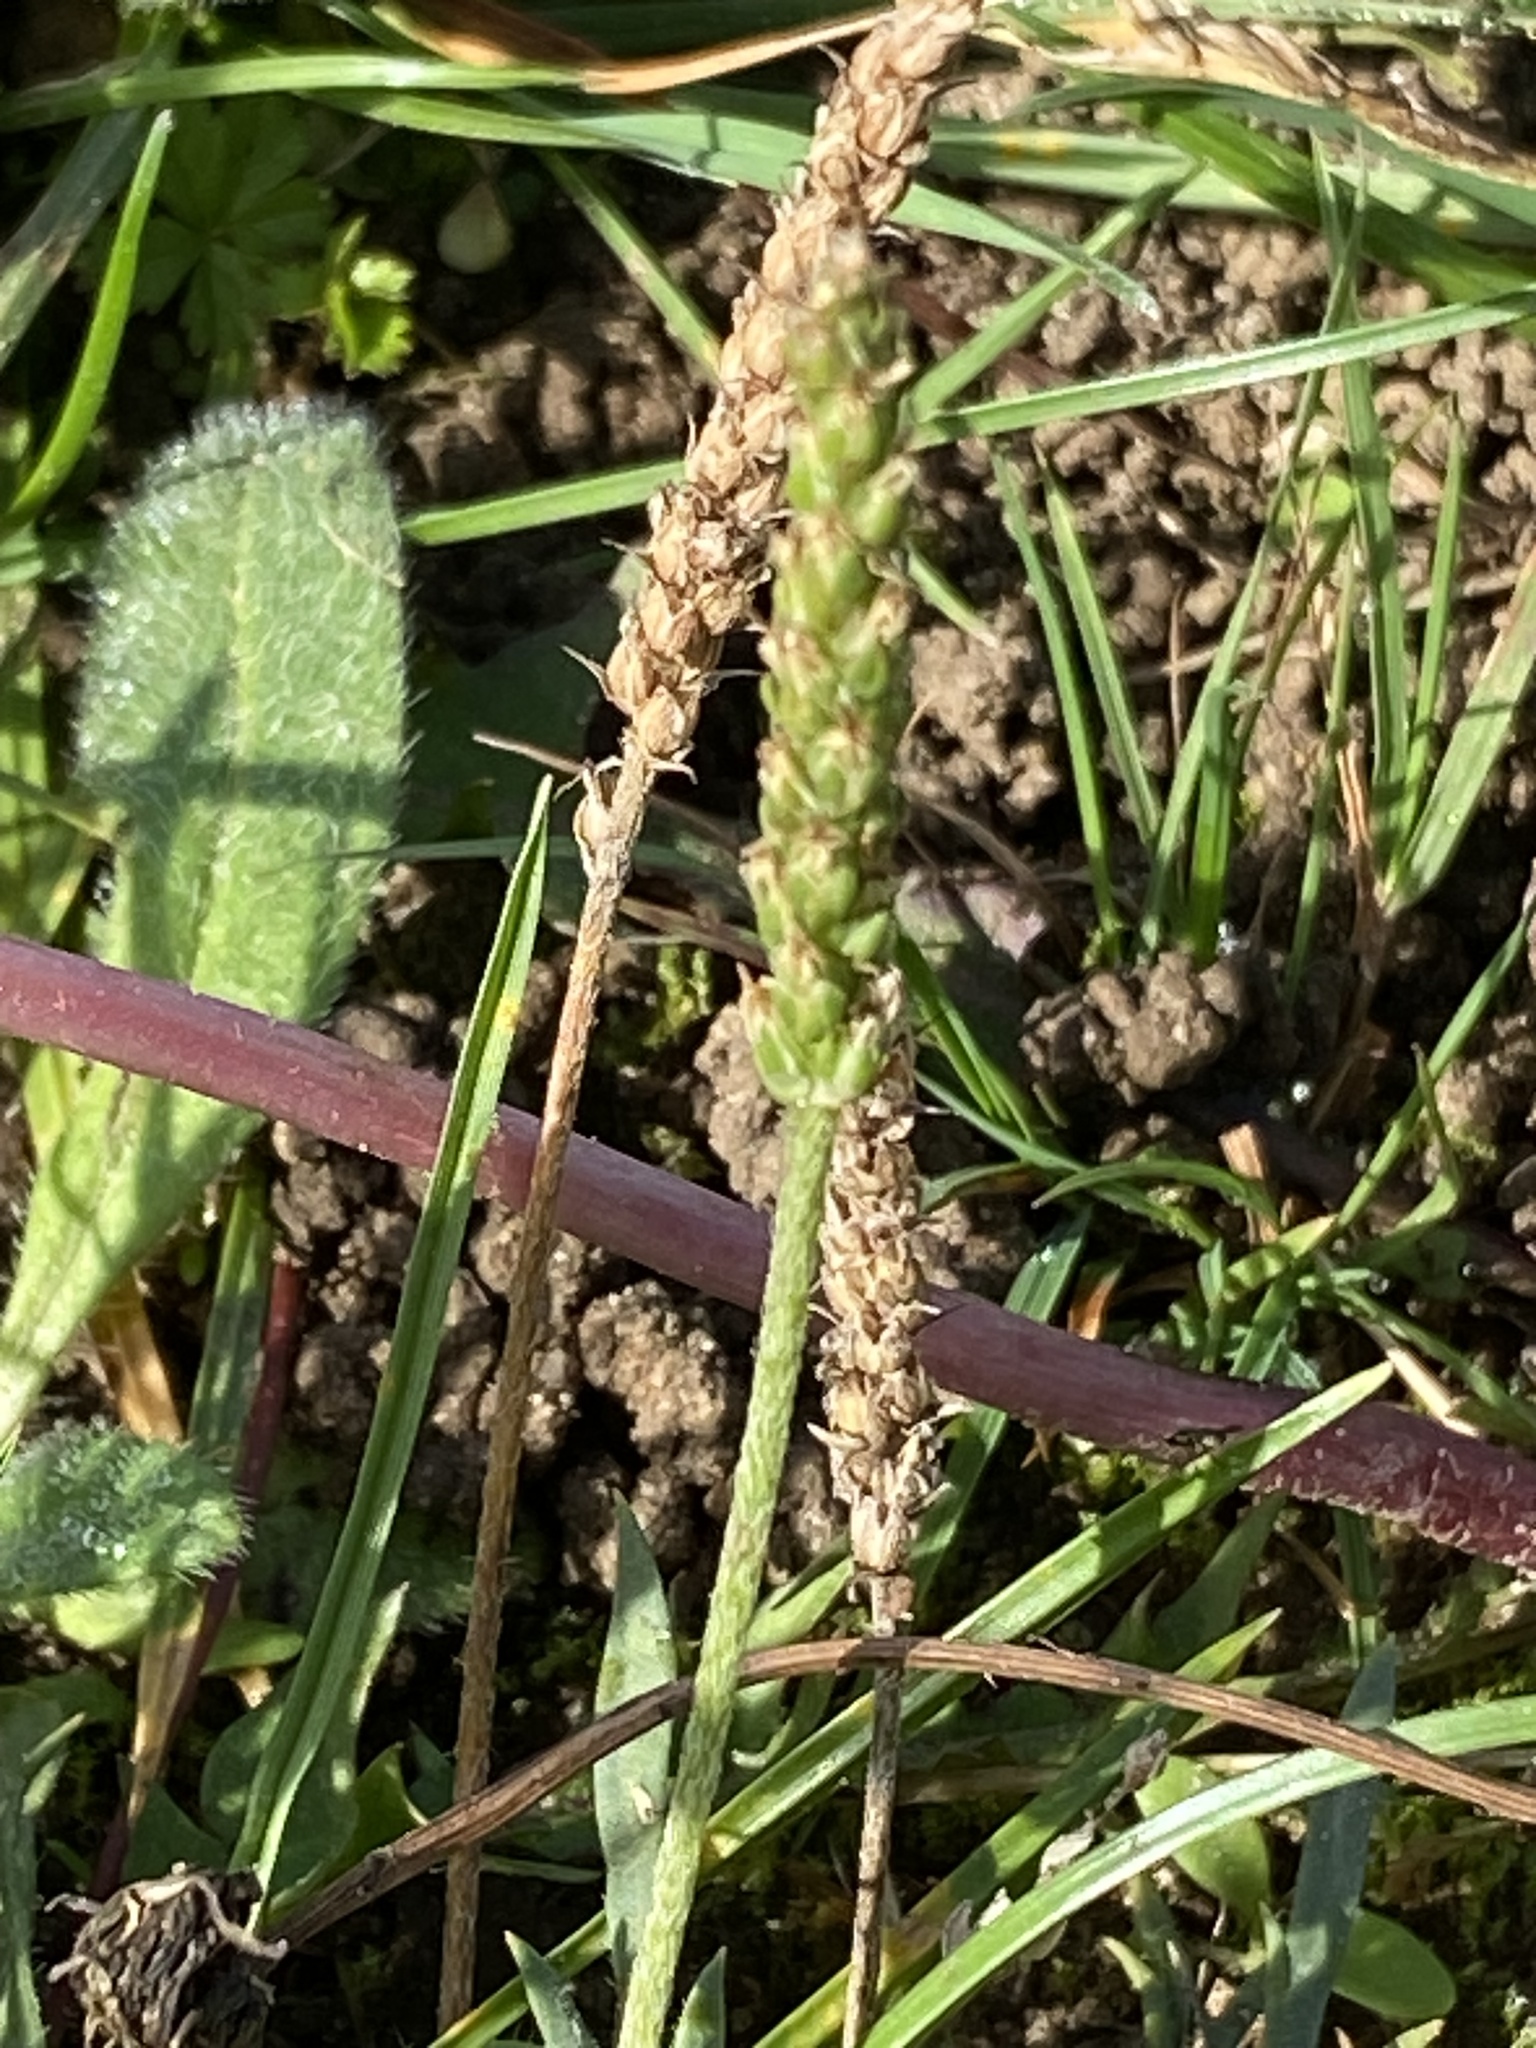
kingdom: Plantae
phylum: Tracheophyta
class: Magnoliopsida
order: Lamiales
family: Plantaginaceae
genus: Plantago
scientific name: Plantago coronopus
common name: Buck's-horn plantain
